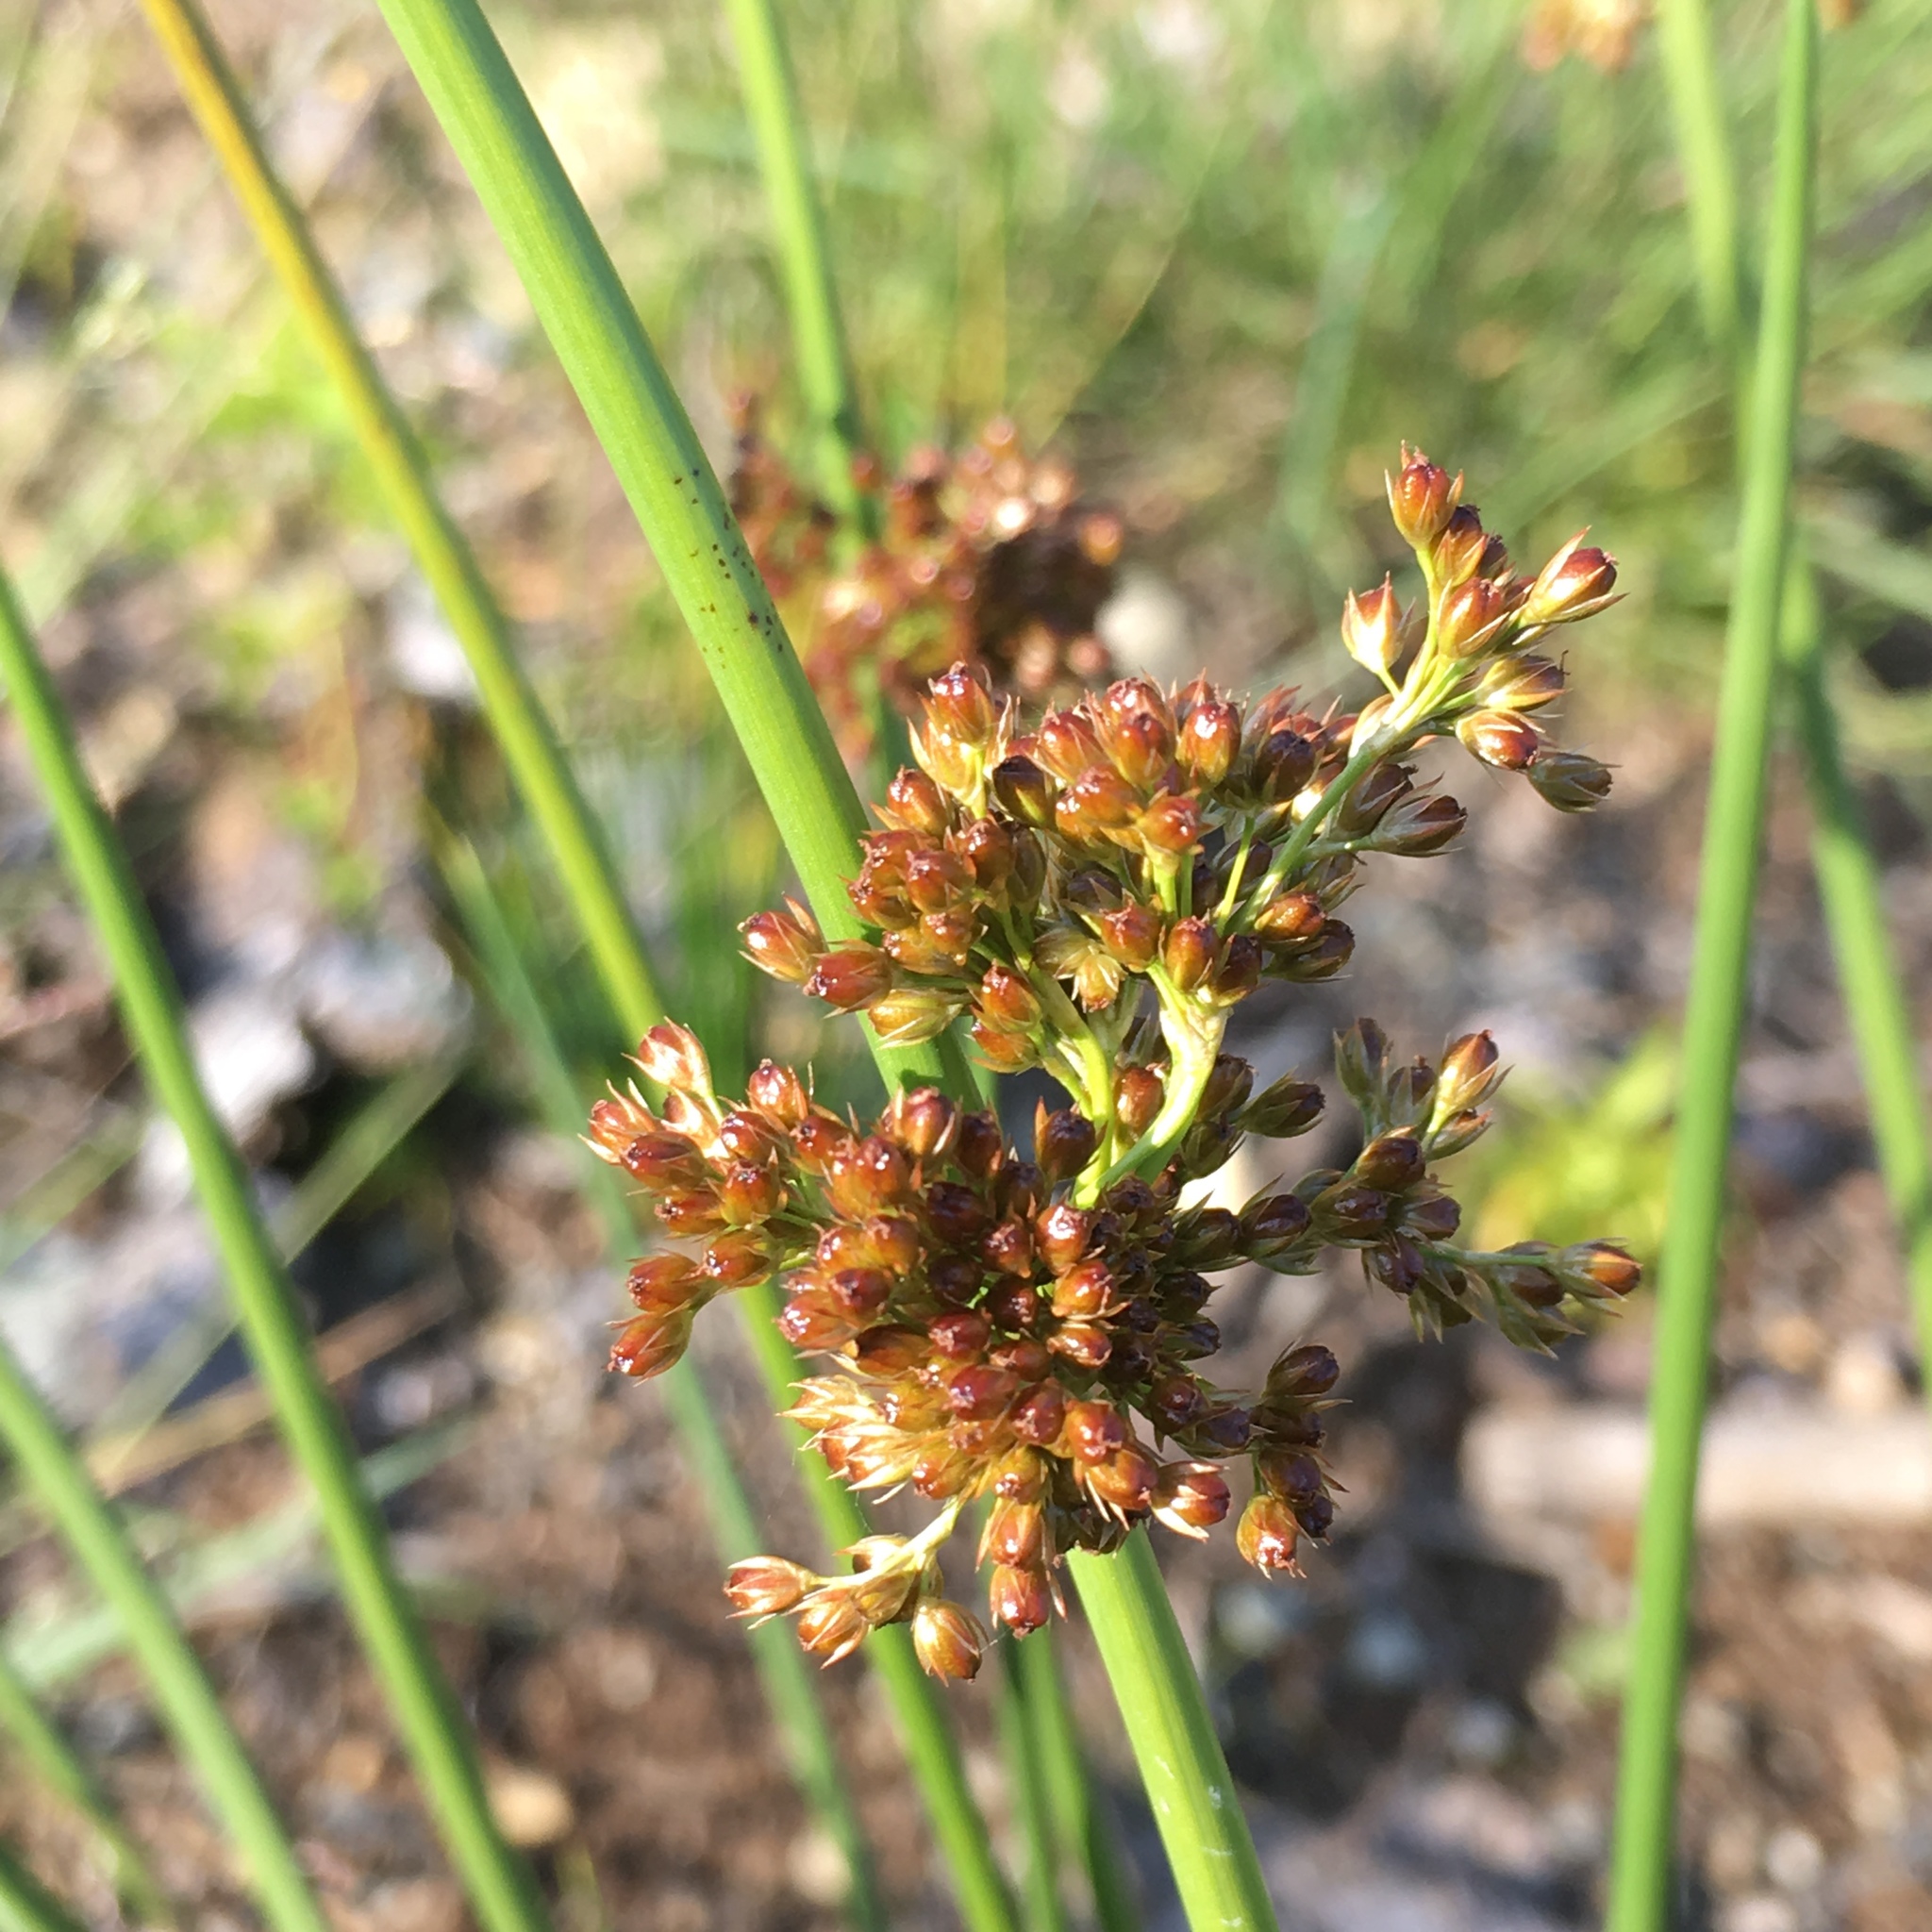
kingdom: Plantae
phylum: Tracheophyta
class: Liliopsida
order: Poales
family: Juncaceae
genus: Juncus
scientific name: Juncus effusus
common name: Soft rush
